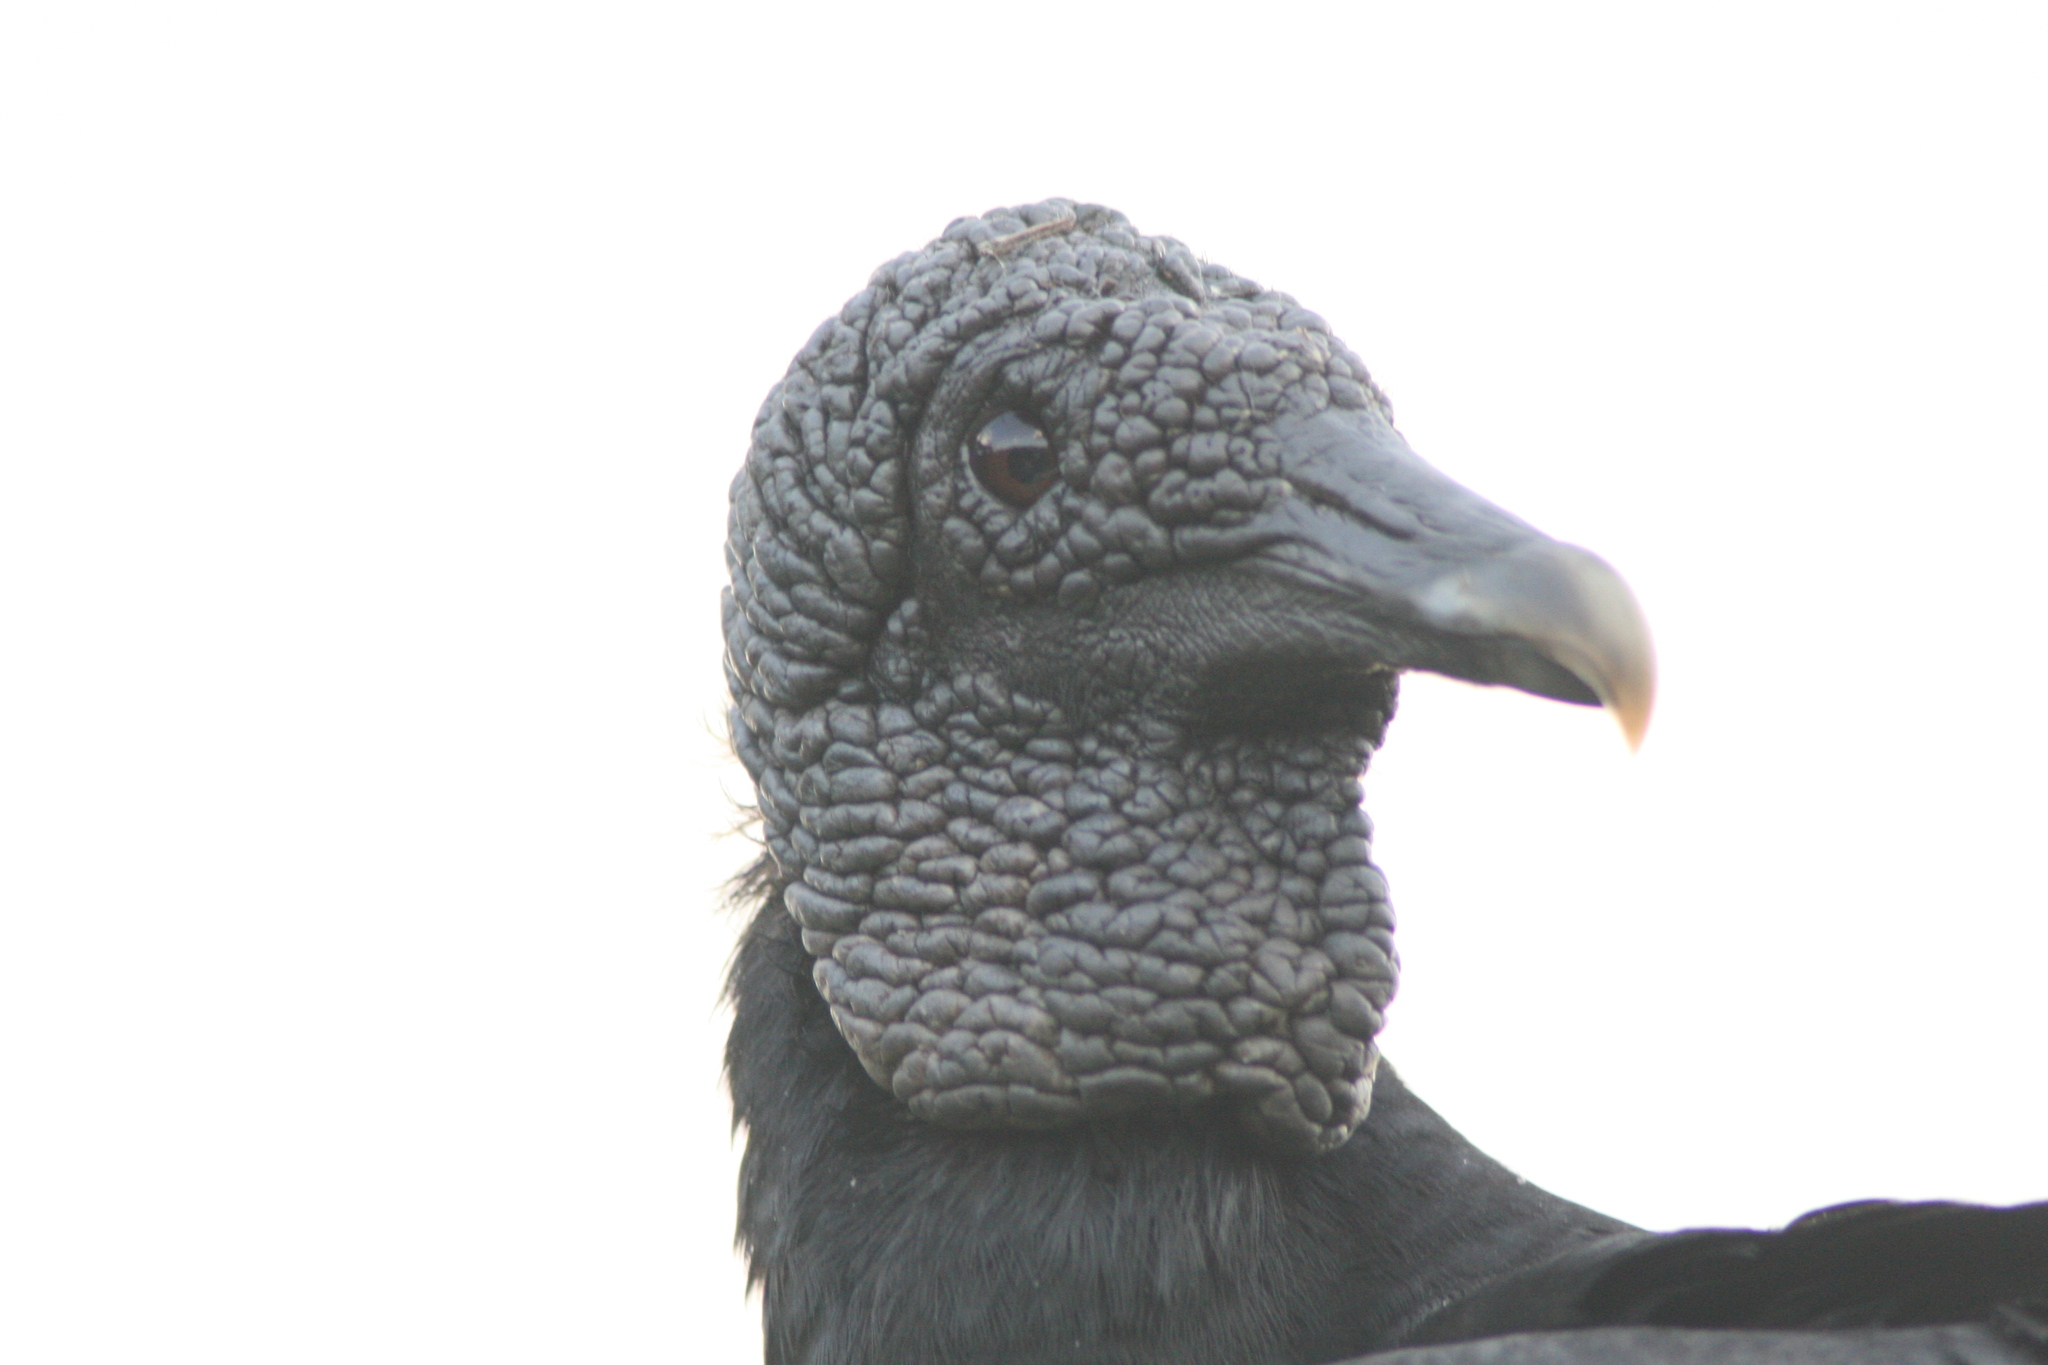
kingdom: Animalia
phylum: Chordata
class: Aves
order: Accipitriformes
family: Cathartidae
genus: Coragyps
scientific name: Coragyps atratus
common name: Black vulture
